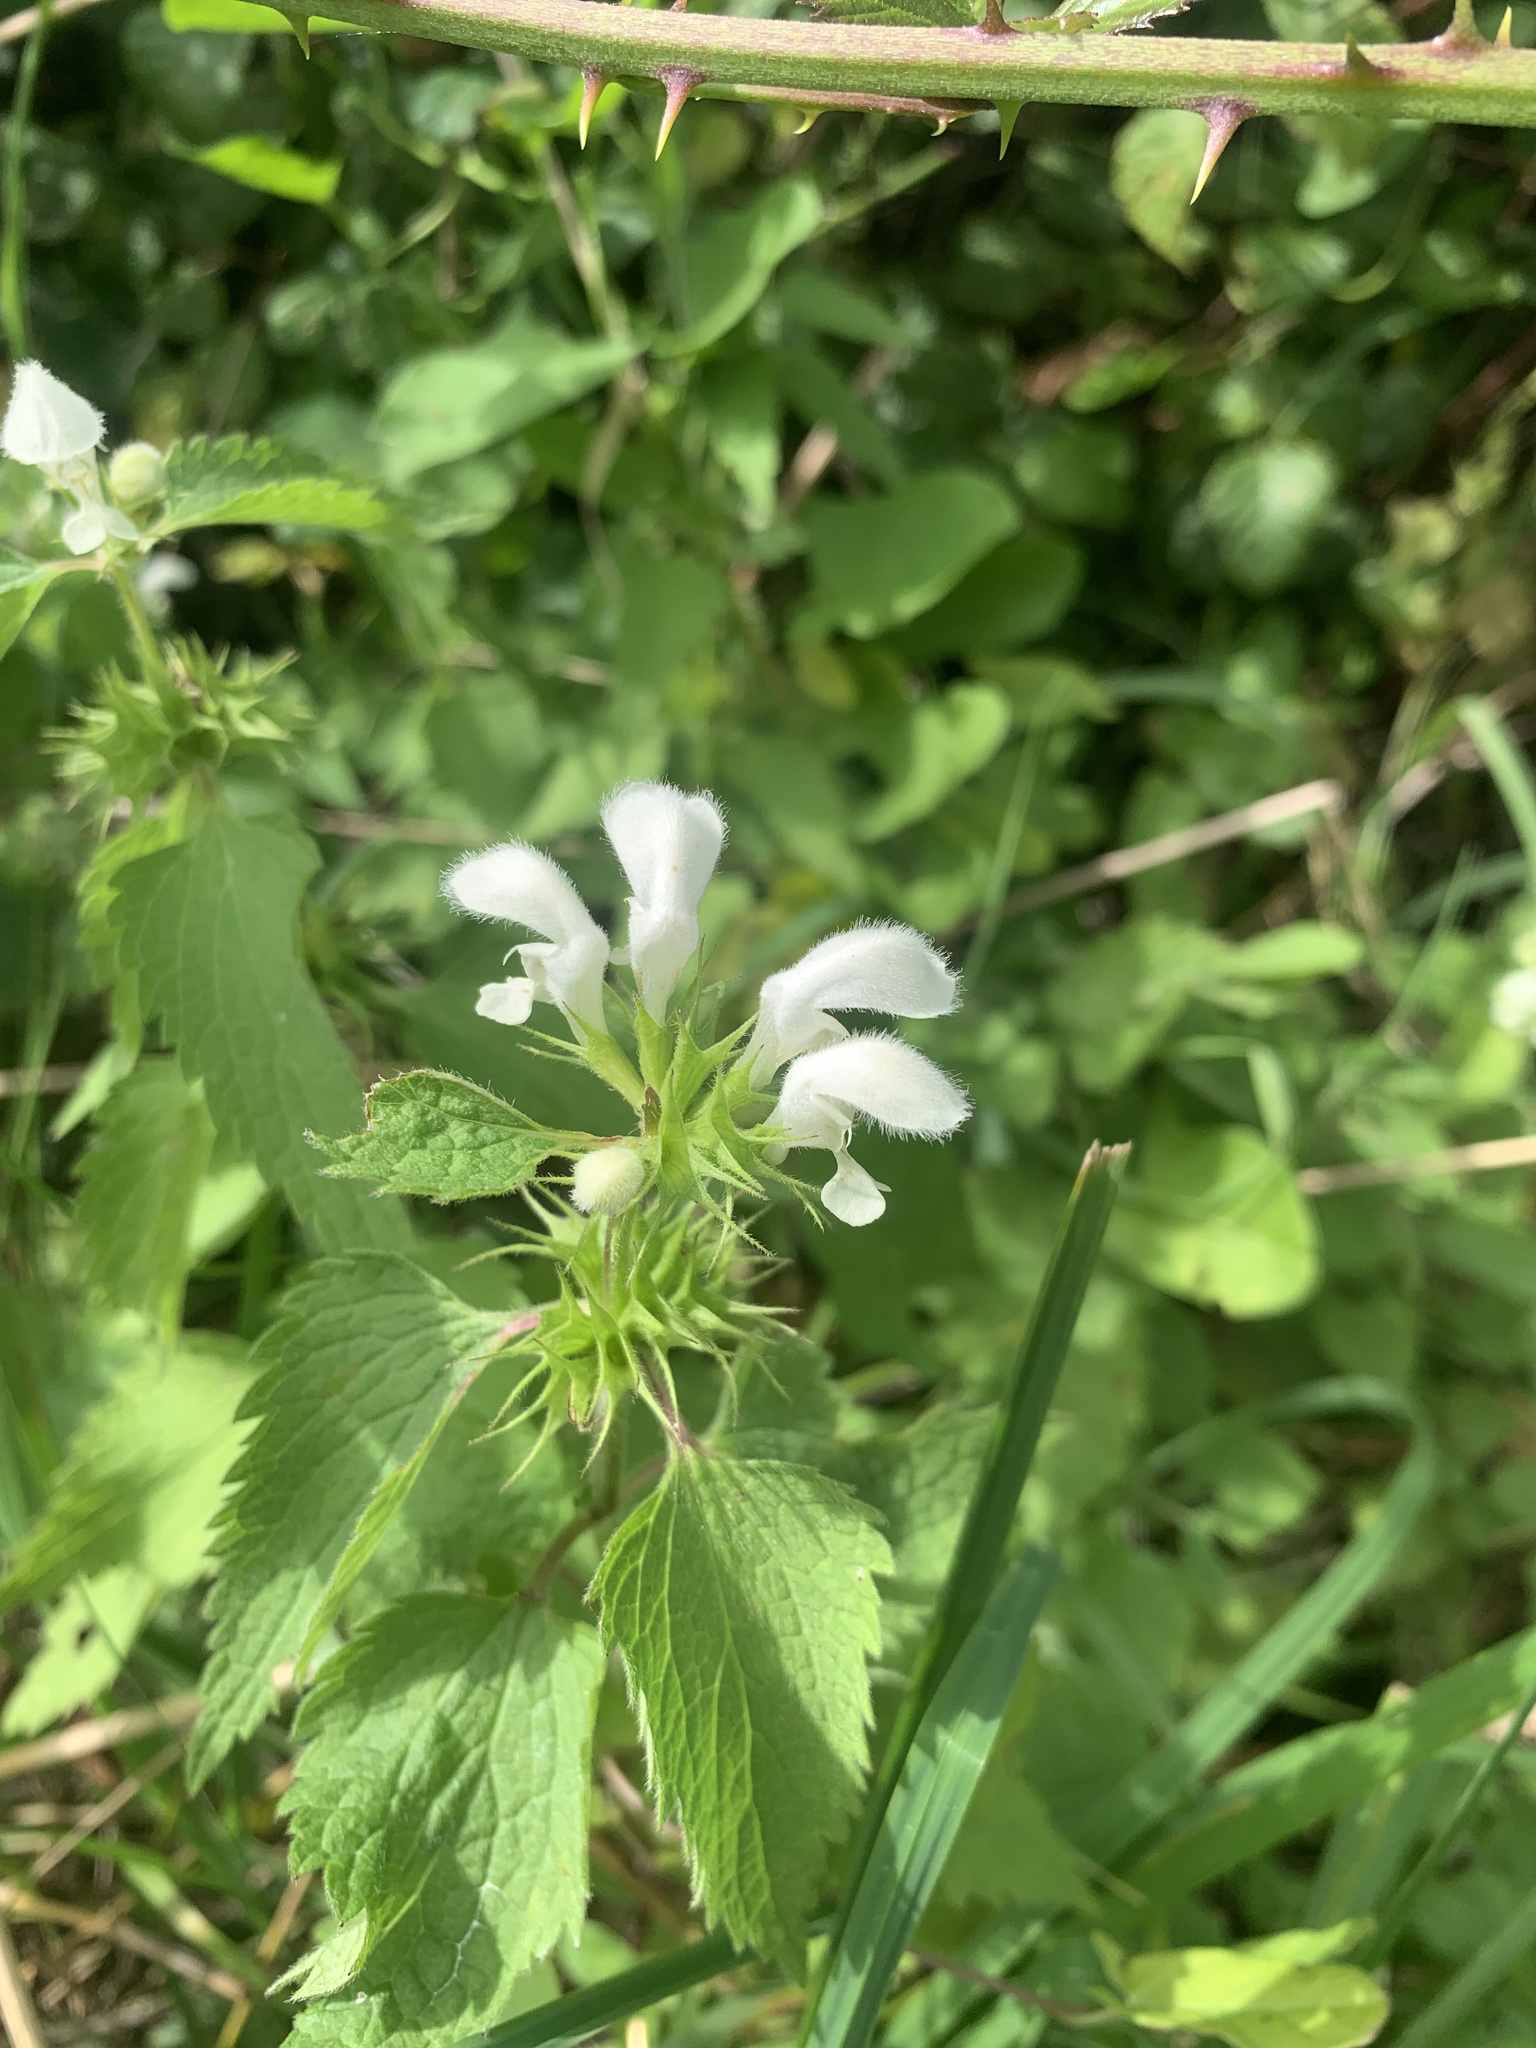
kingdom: Plantae
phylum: Tracheophyta
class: Magnoliopsida
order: Lamiales
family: Lamiaceae
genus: Lamium
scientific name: Lamium album
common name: White dead-nettle
